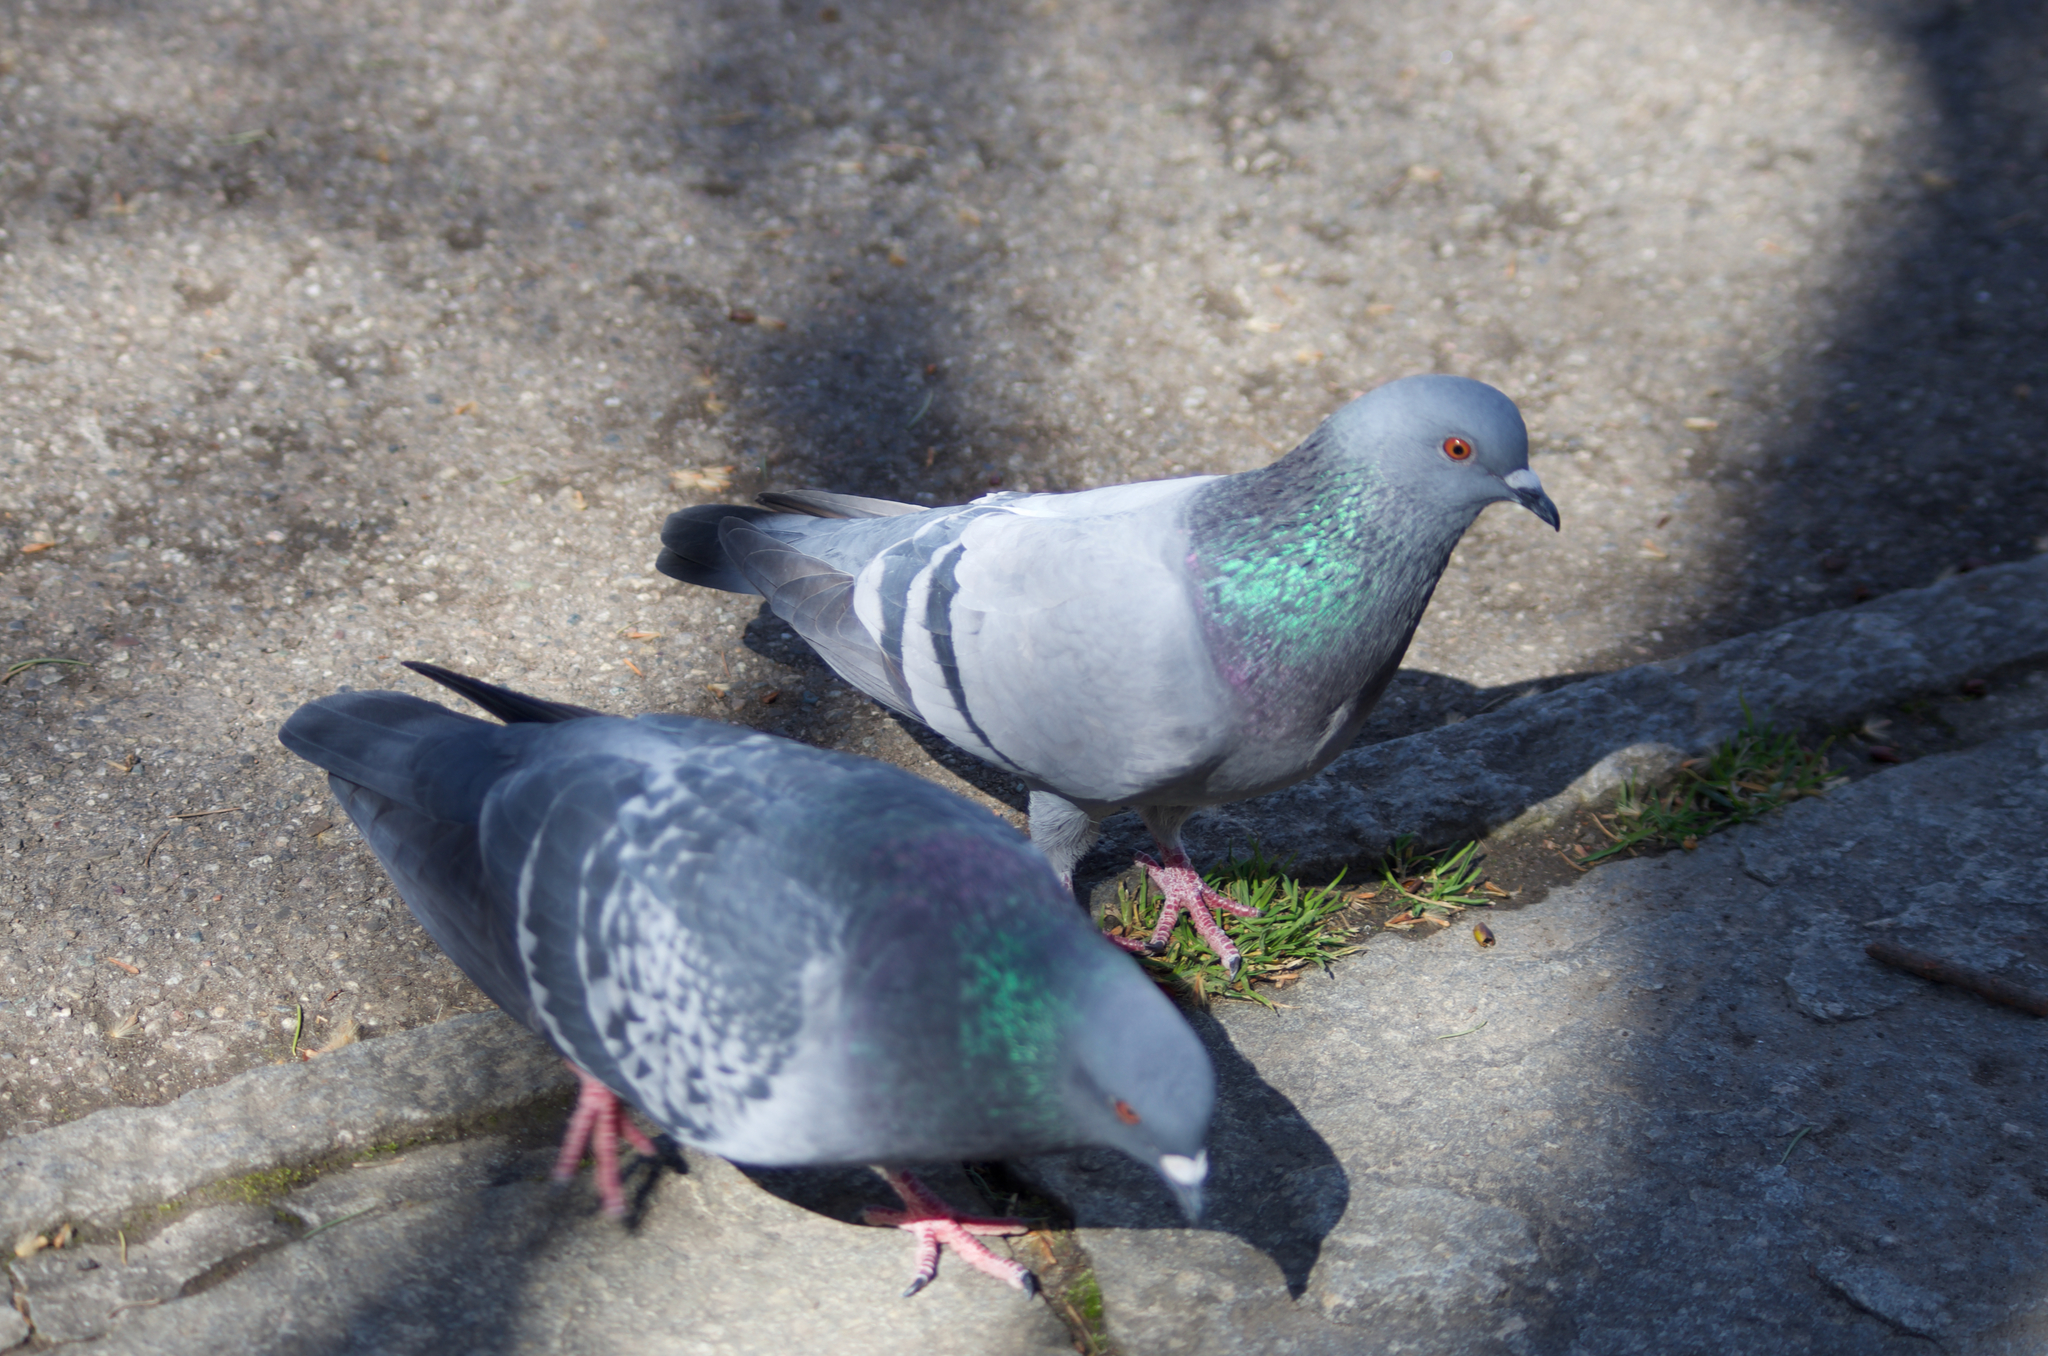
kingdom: Animalia
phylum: Chordata
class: Aves
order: Columbiformes
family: Columbidae
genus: Columba
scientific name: Columba livia
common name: Rock pigeon
